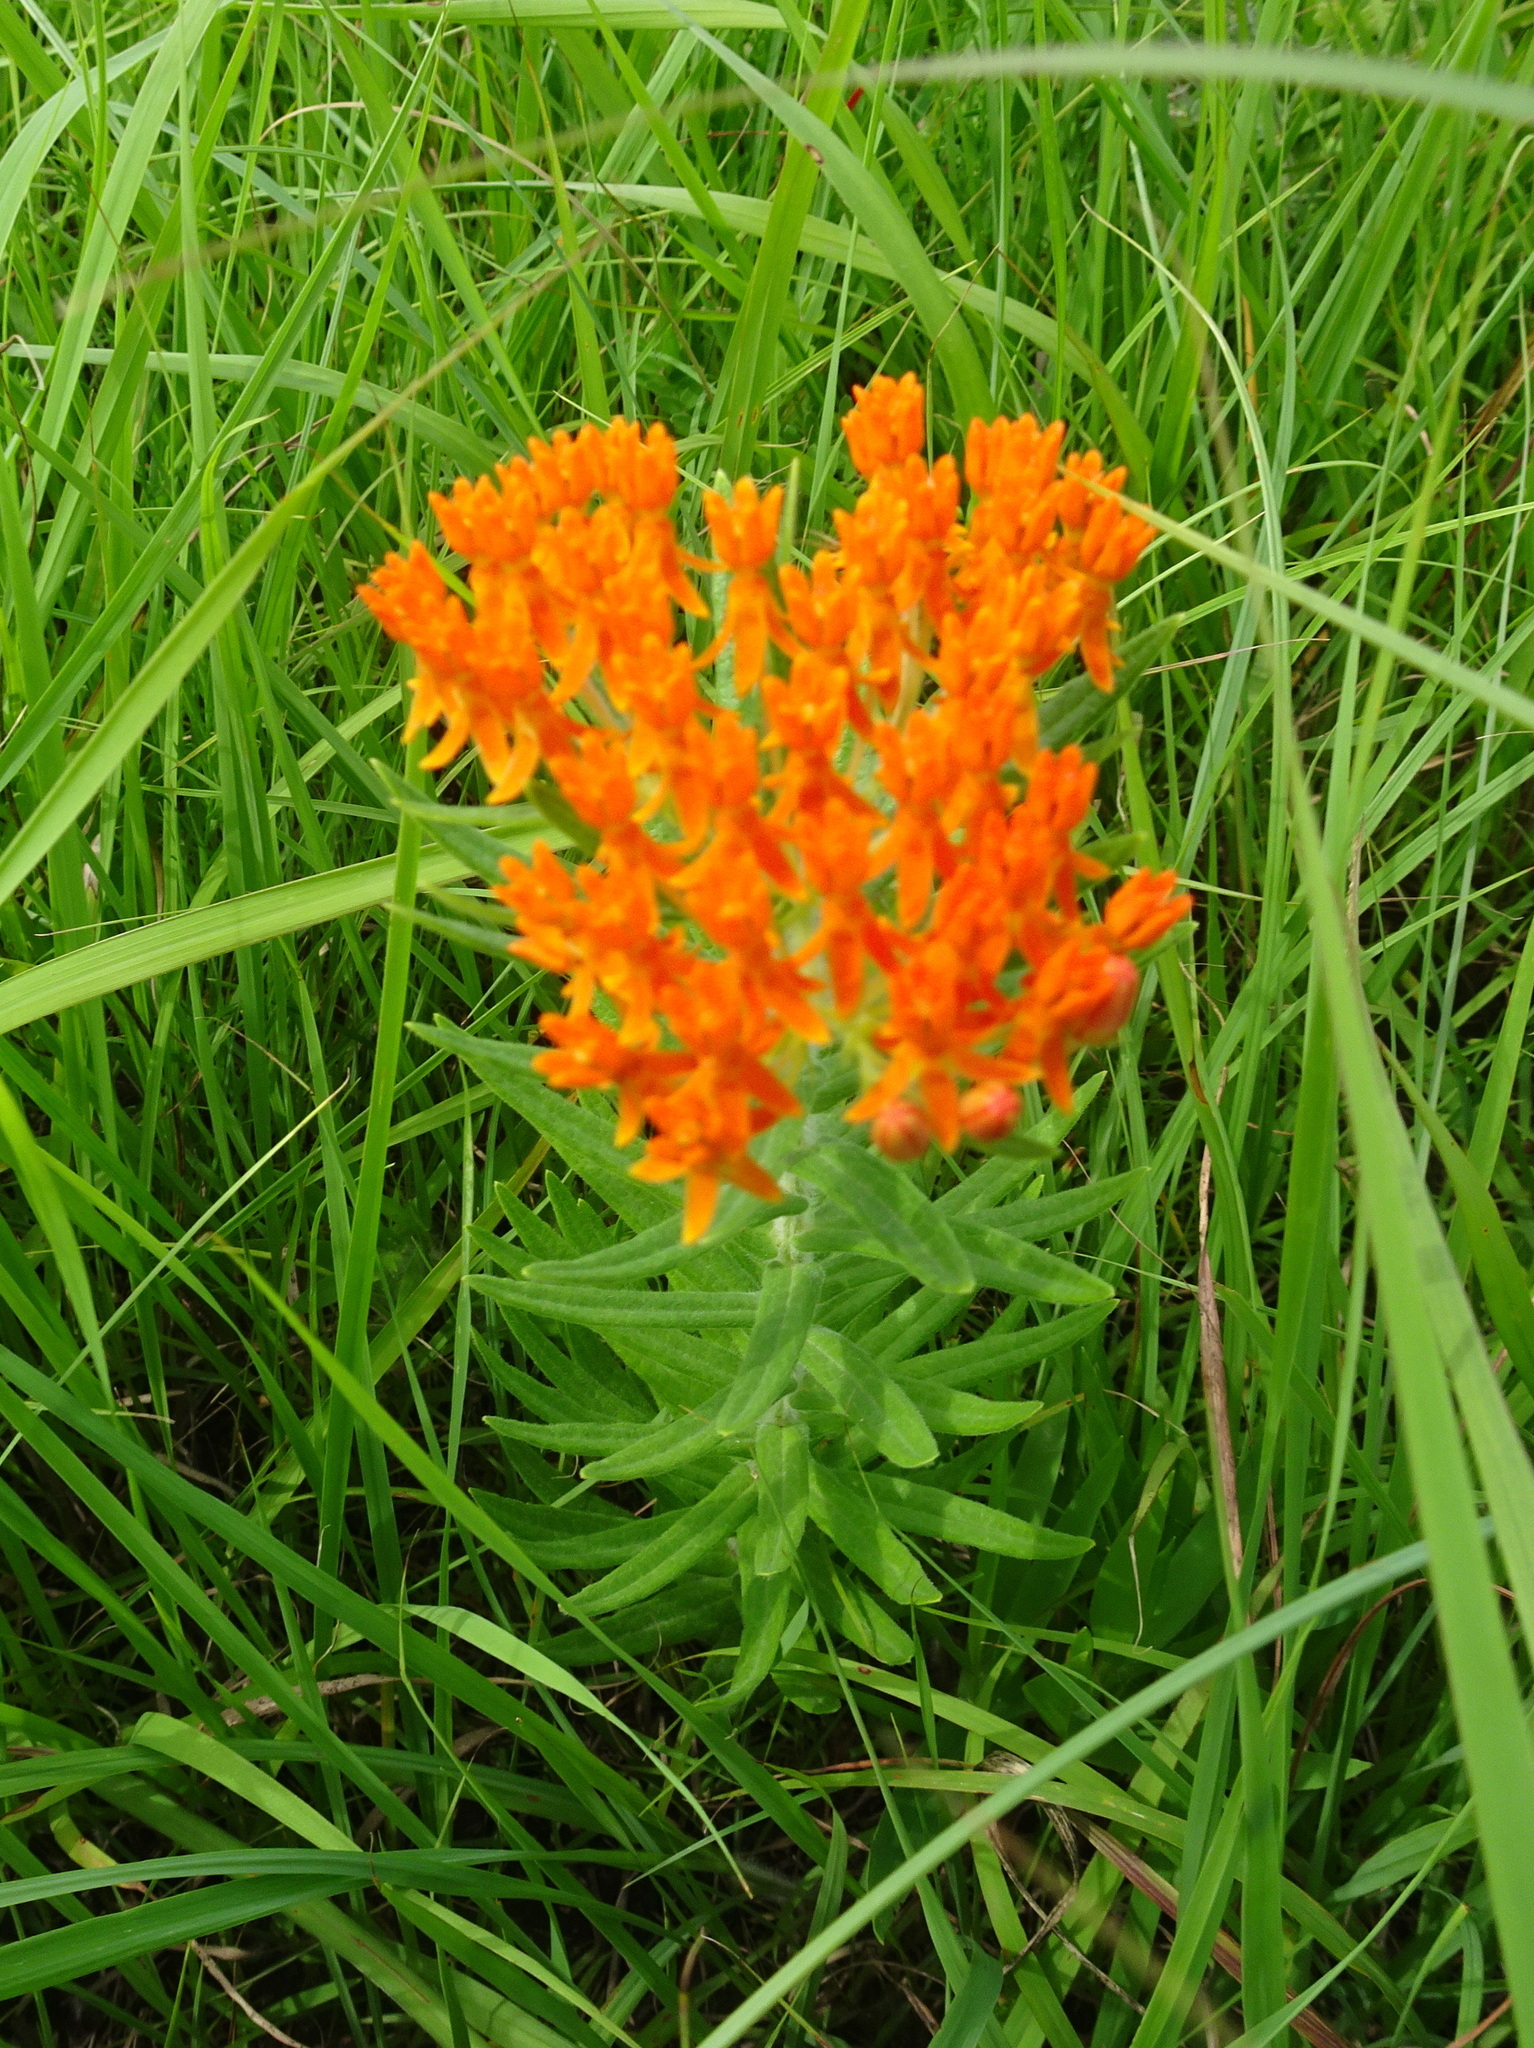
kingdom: Plantae
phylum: Tracheophyta
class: Magnoliopsida
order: Gentianales
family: Apocynaceae
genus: Asclepias
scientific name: Asclepias tuberosa
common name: Butterfly milkweed
